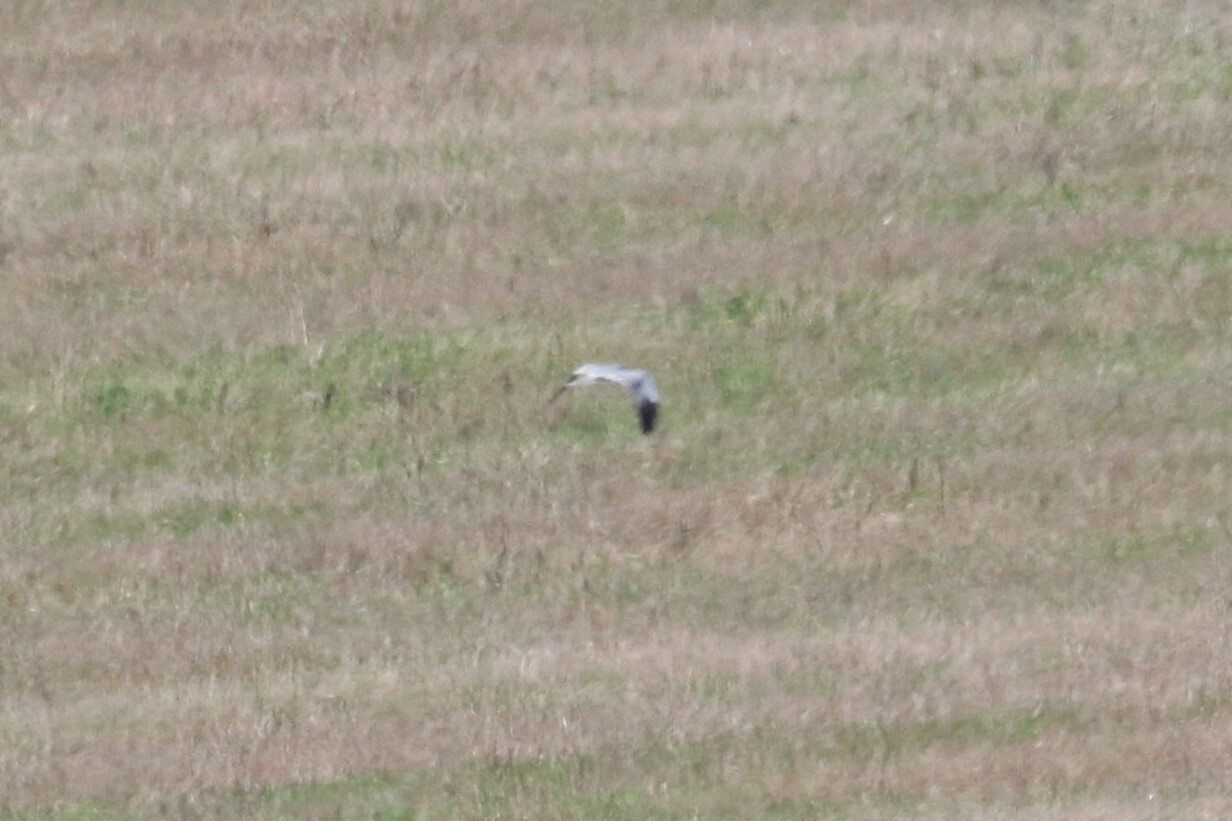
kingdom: Animalia
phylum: Chordata
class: Aves
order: Accipitriformes
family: Accipitridae
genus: Circus
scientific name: Circus pygargus
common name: Montagu's harrier
